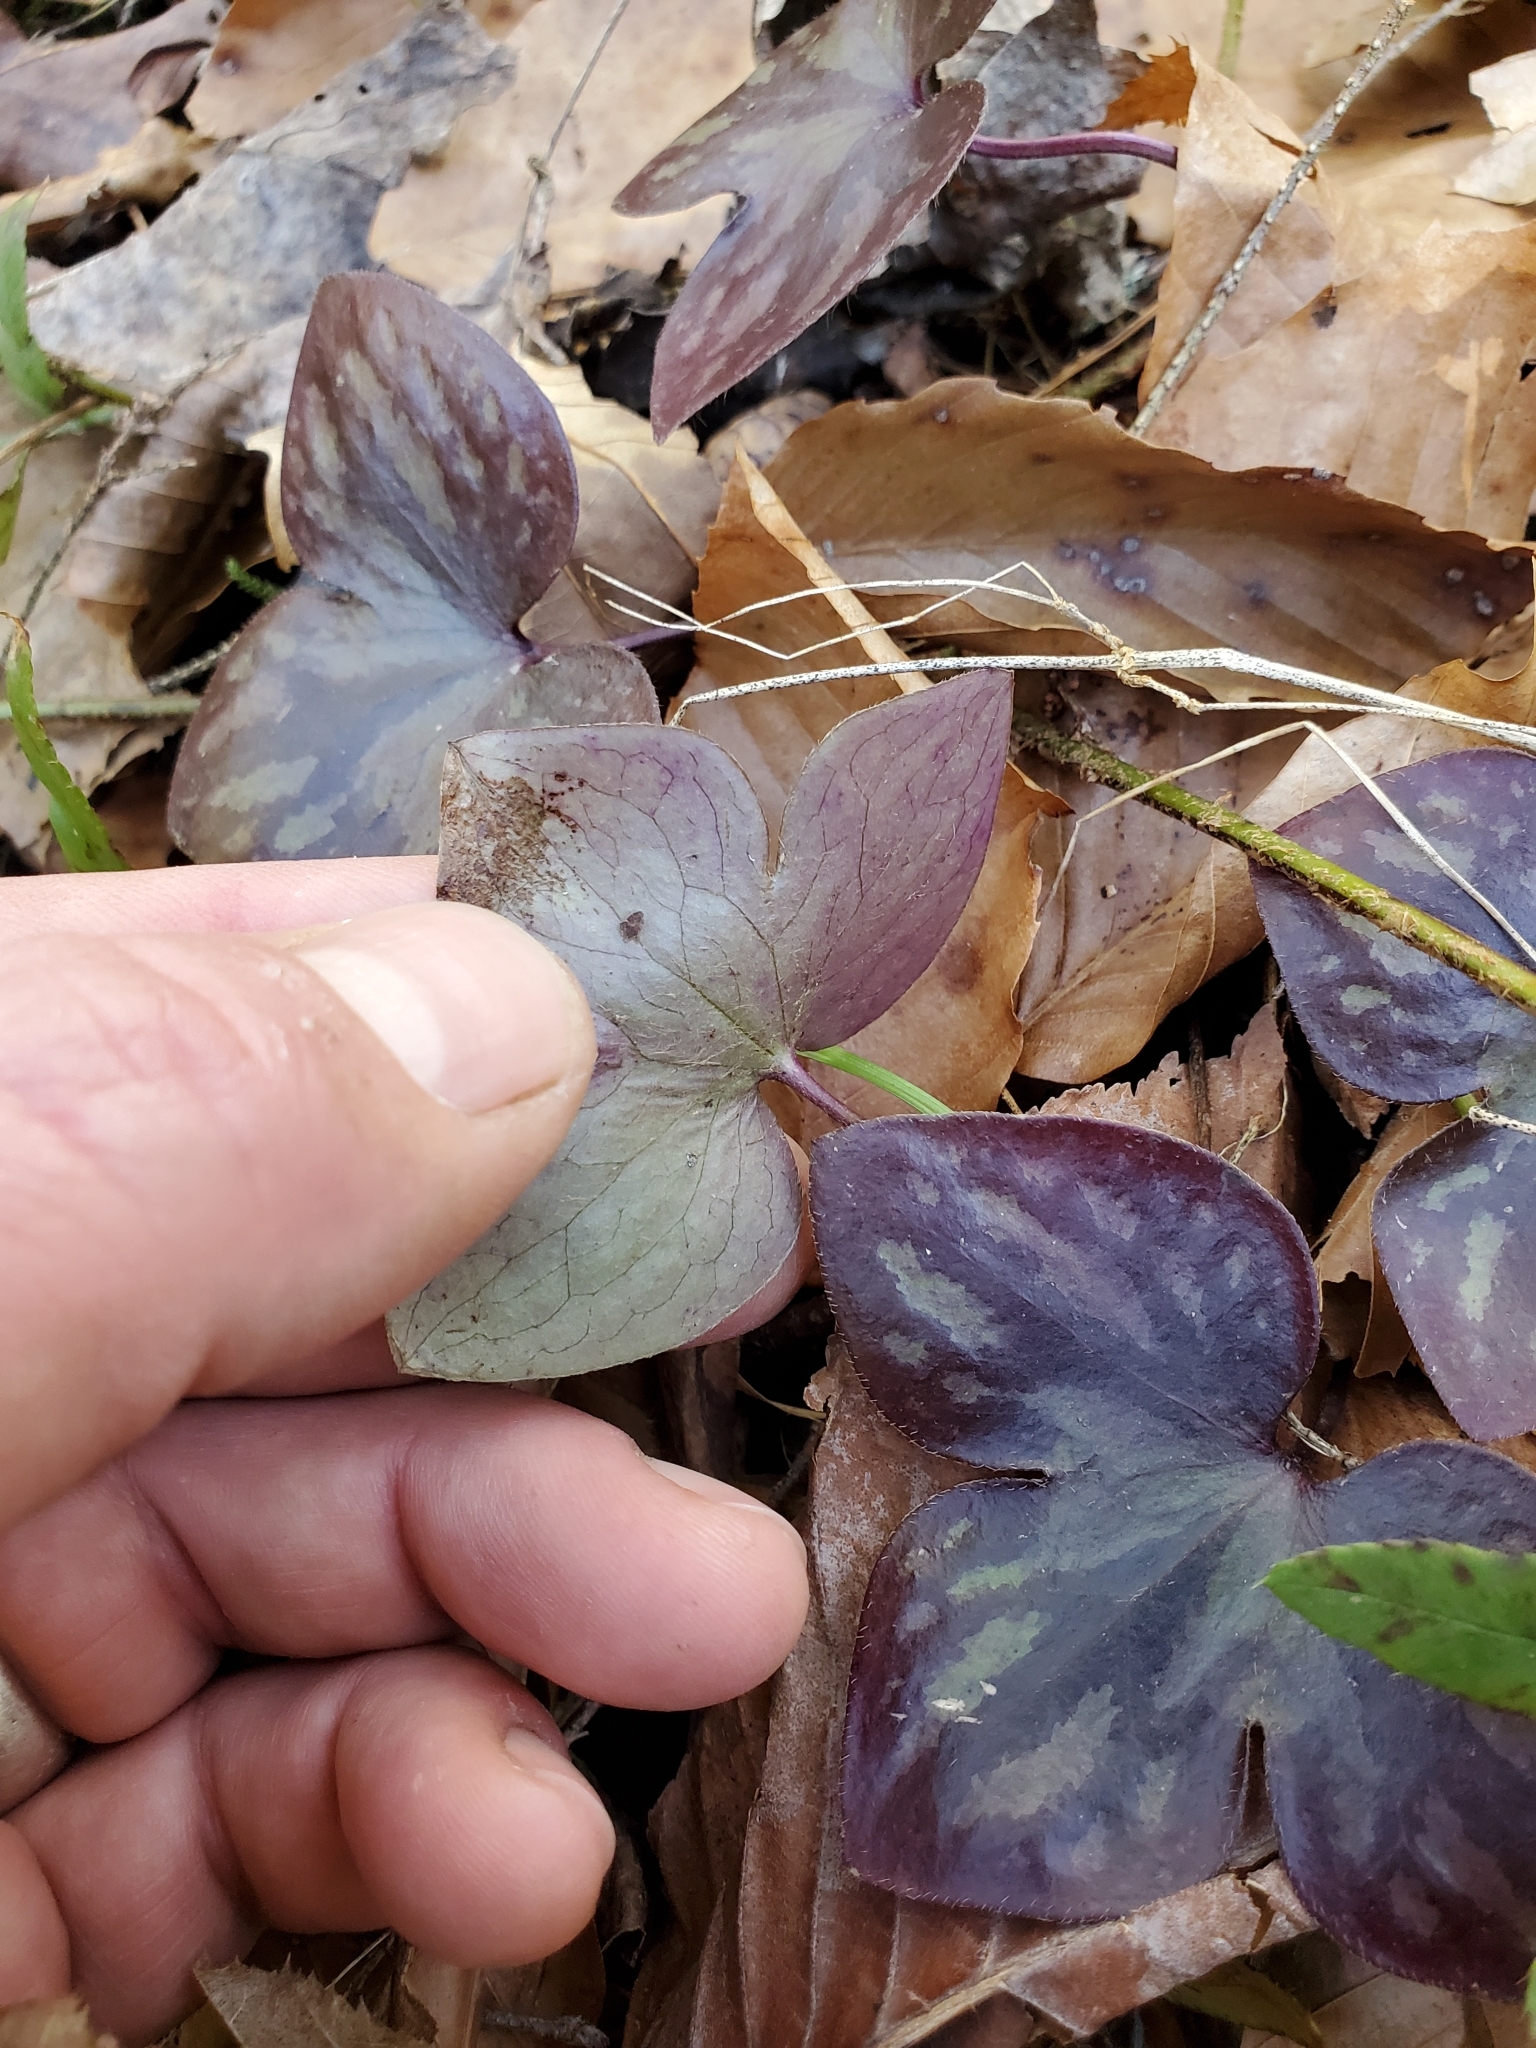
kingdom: Plantae
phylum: Tracheophyta
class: Magnoliopsida
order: Ranunculales
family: Ranunculaceae
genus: Hepatica
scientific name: Hepatica acutiloba
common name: Sharp-lobed hepatica
